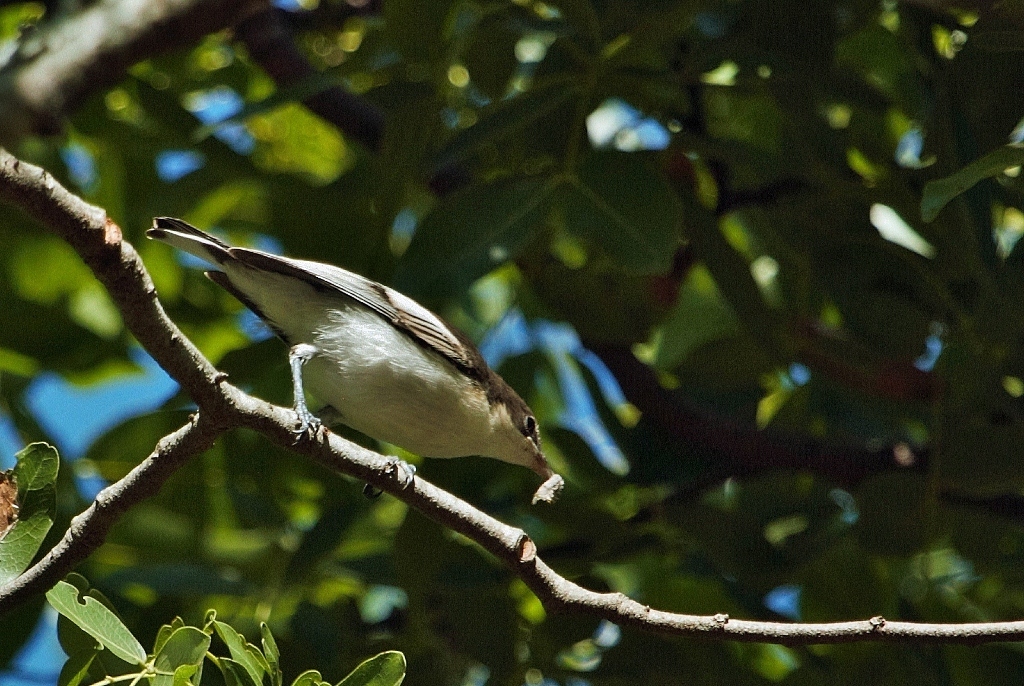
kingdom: Animalia
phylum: Chordata
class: Aves
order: Passeriformes
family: Hyliotidae
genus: Hyliota
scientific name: Hyliota australis
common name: Southern hyliota
